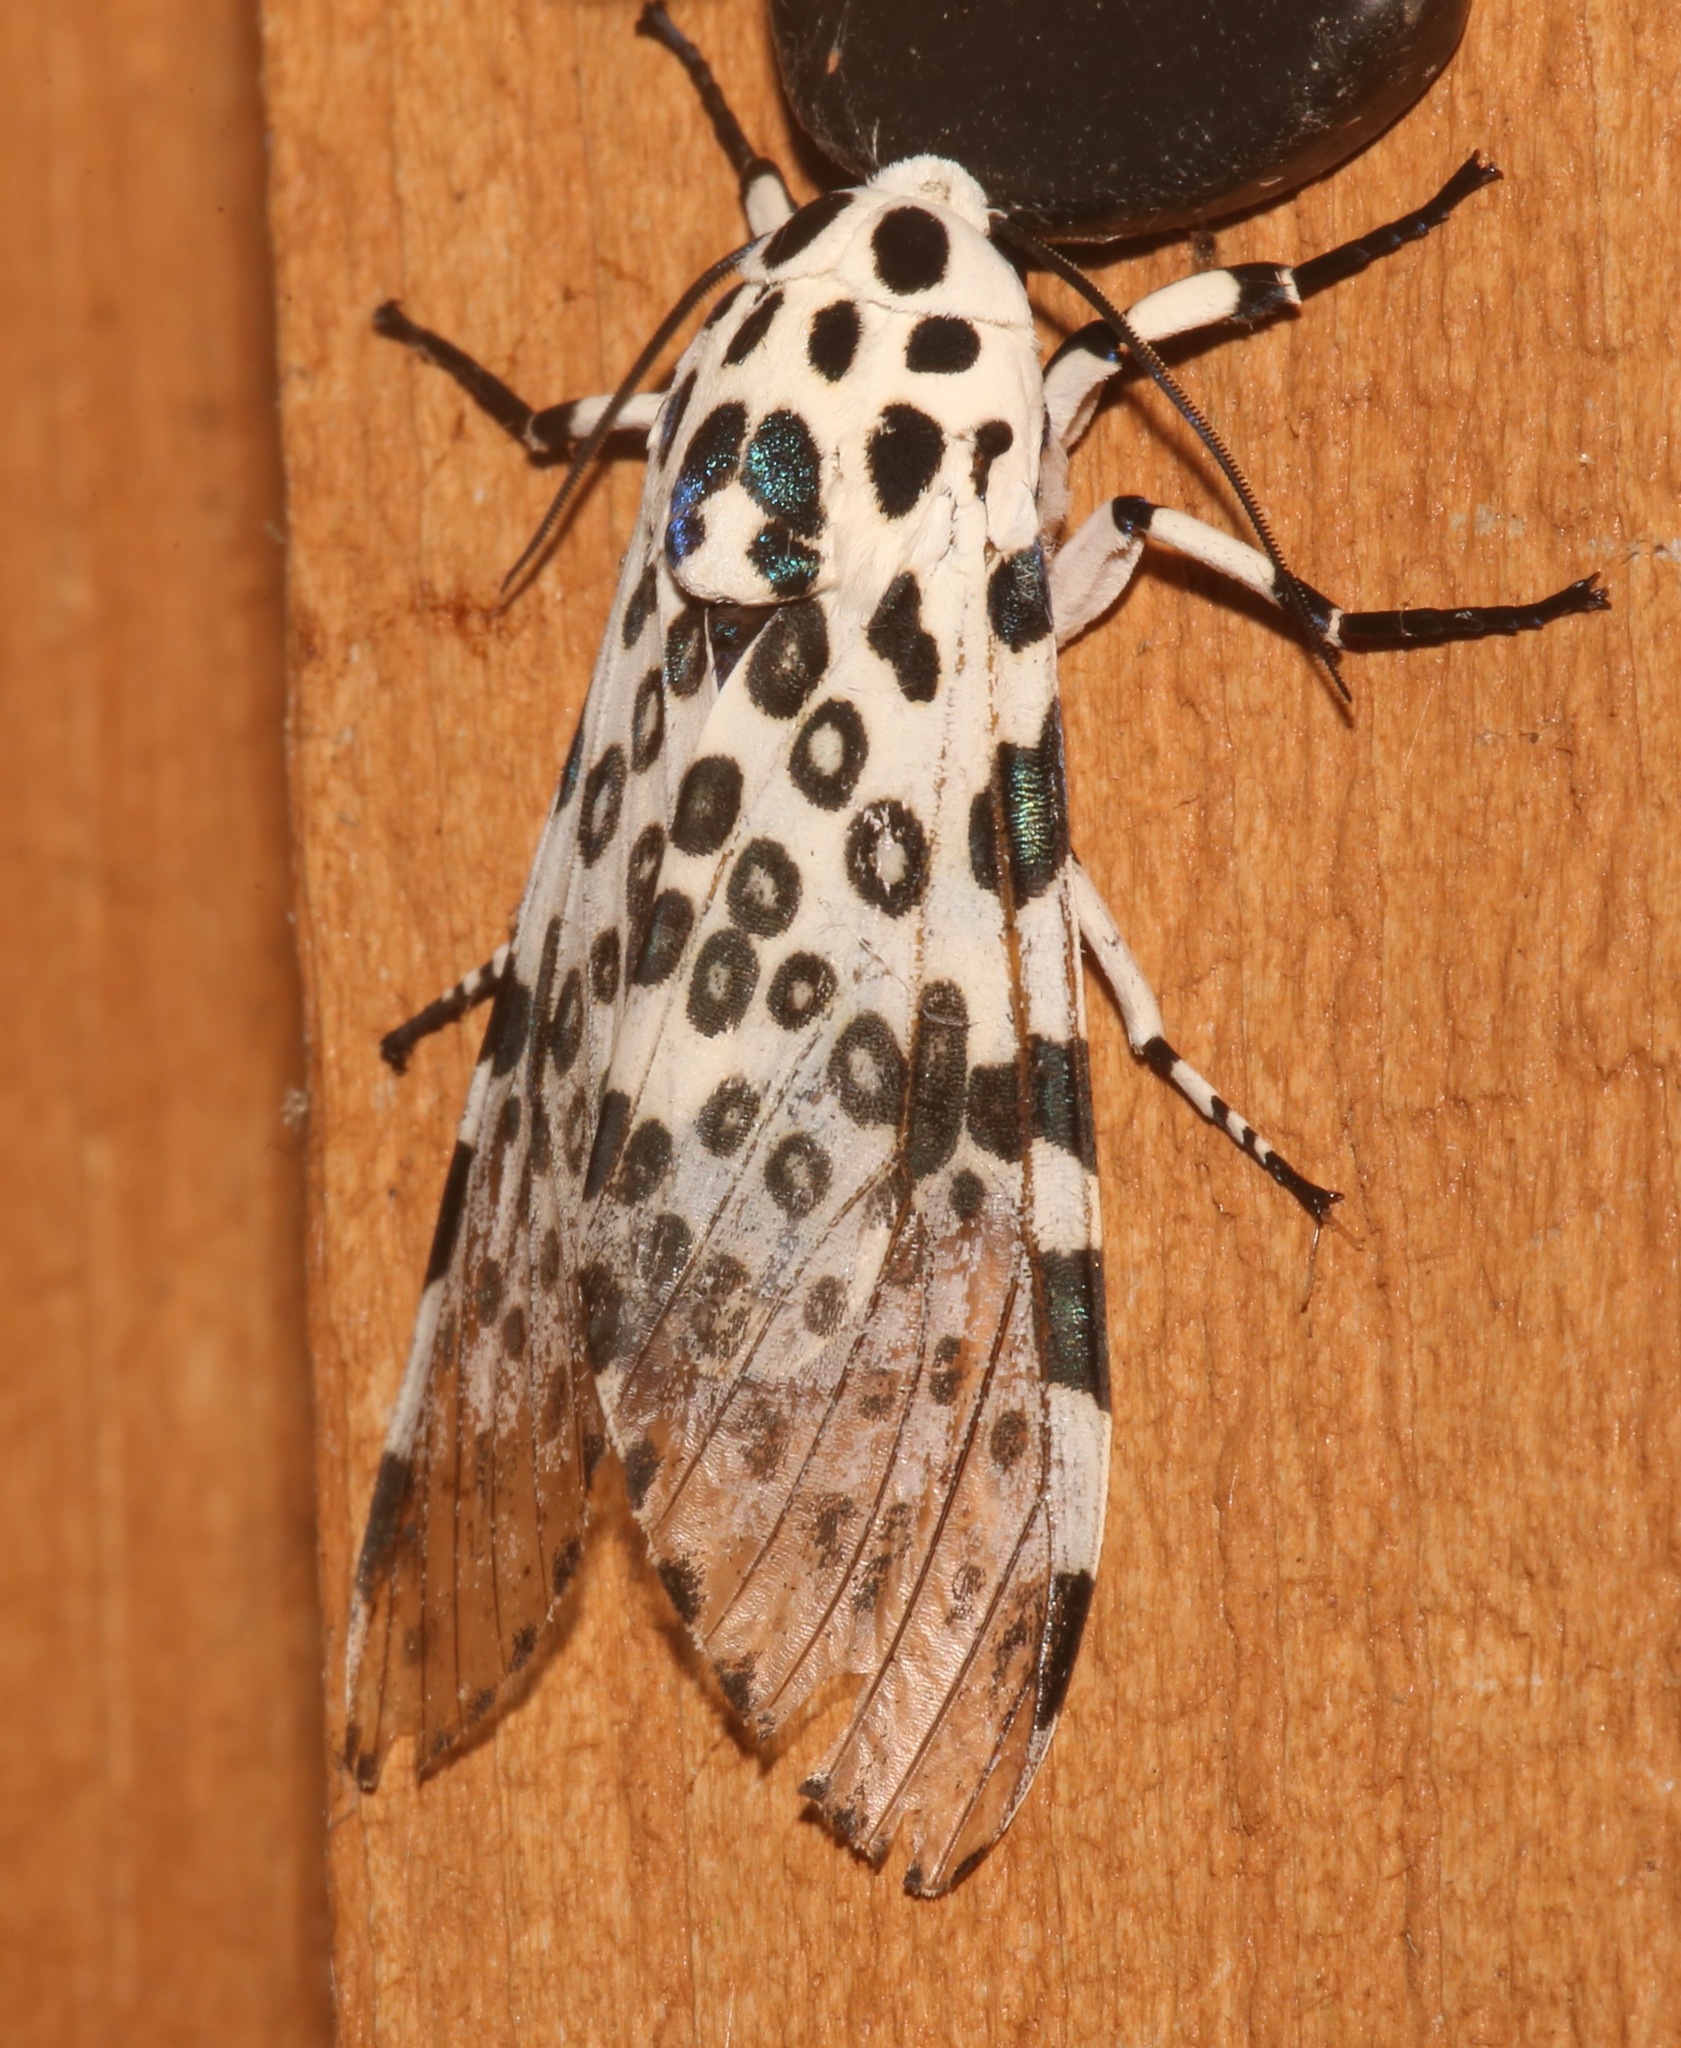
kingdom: Animalia
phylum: Arthropoda
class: Insecta
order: Lepidoptera
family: Erebidae
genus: Hypercompe
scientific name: Hypercompe scribonia
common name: Giant leopard moth
